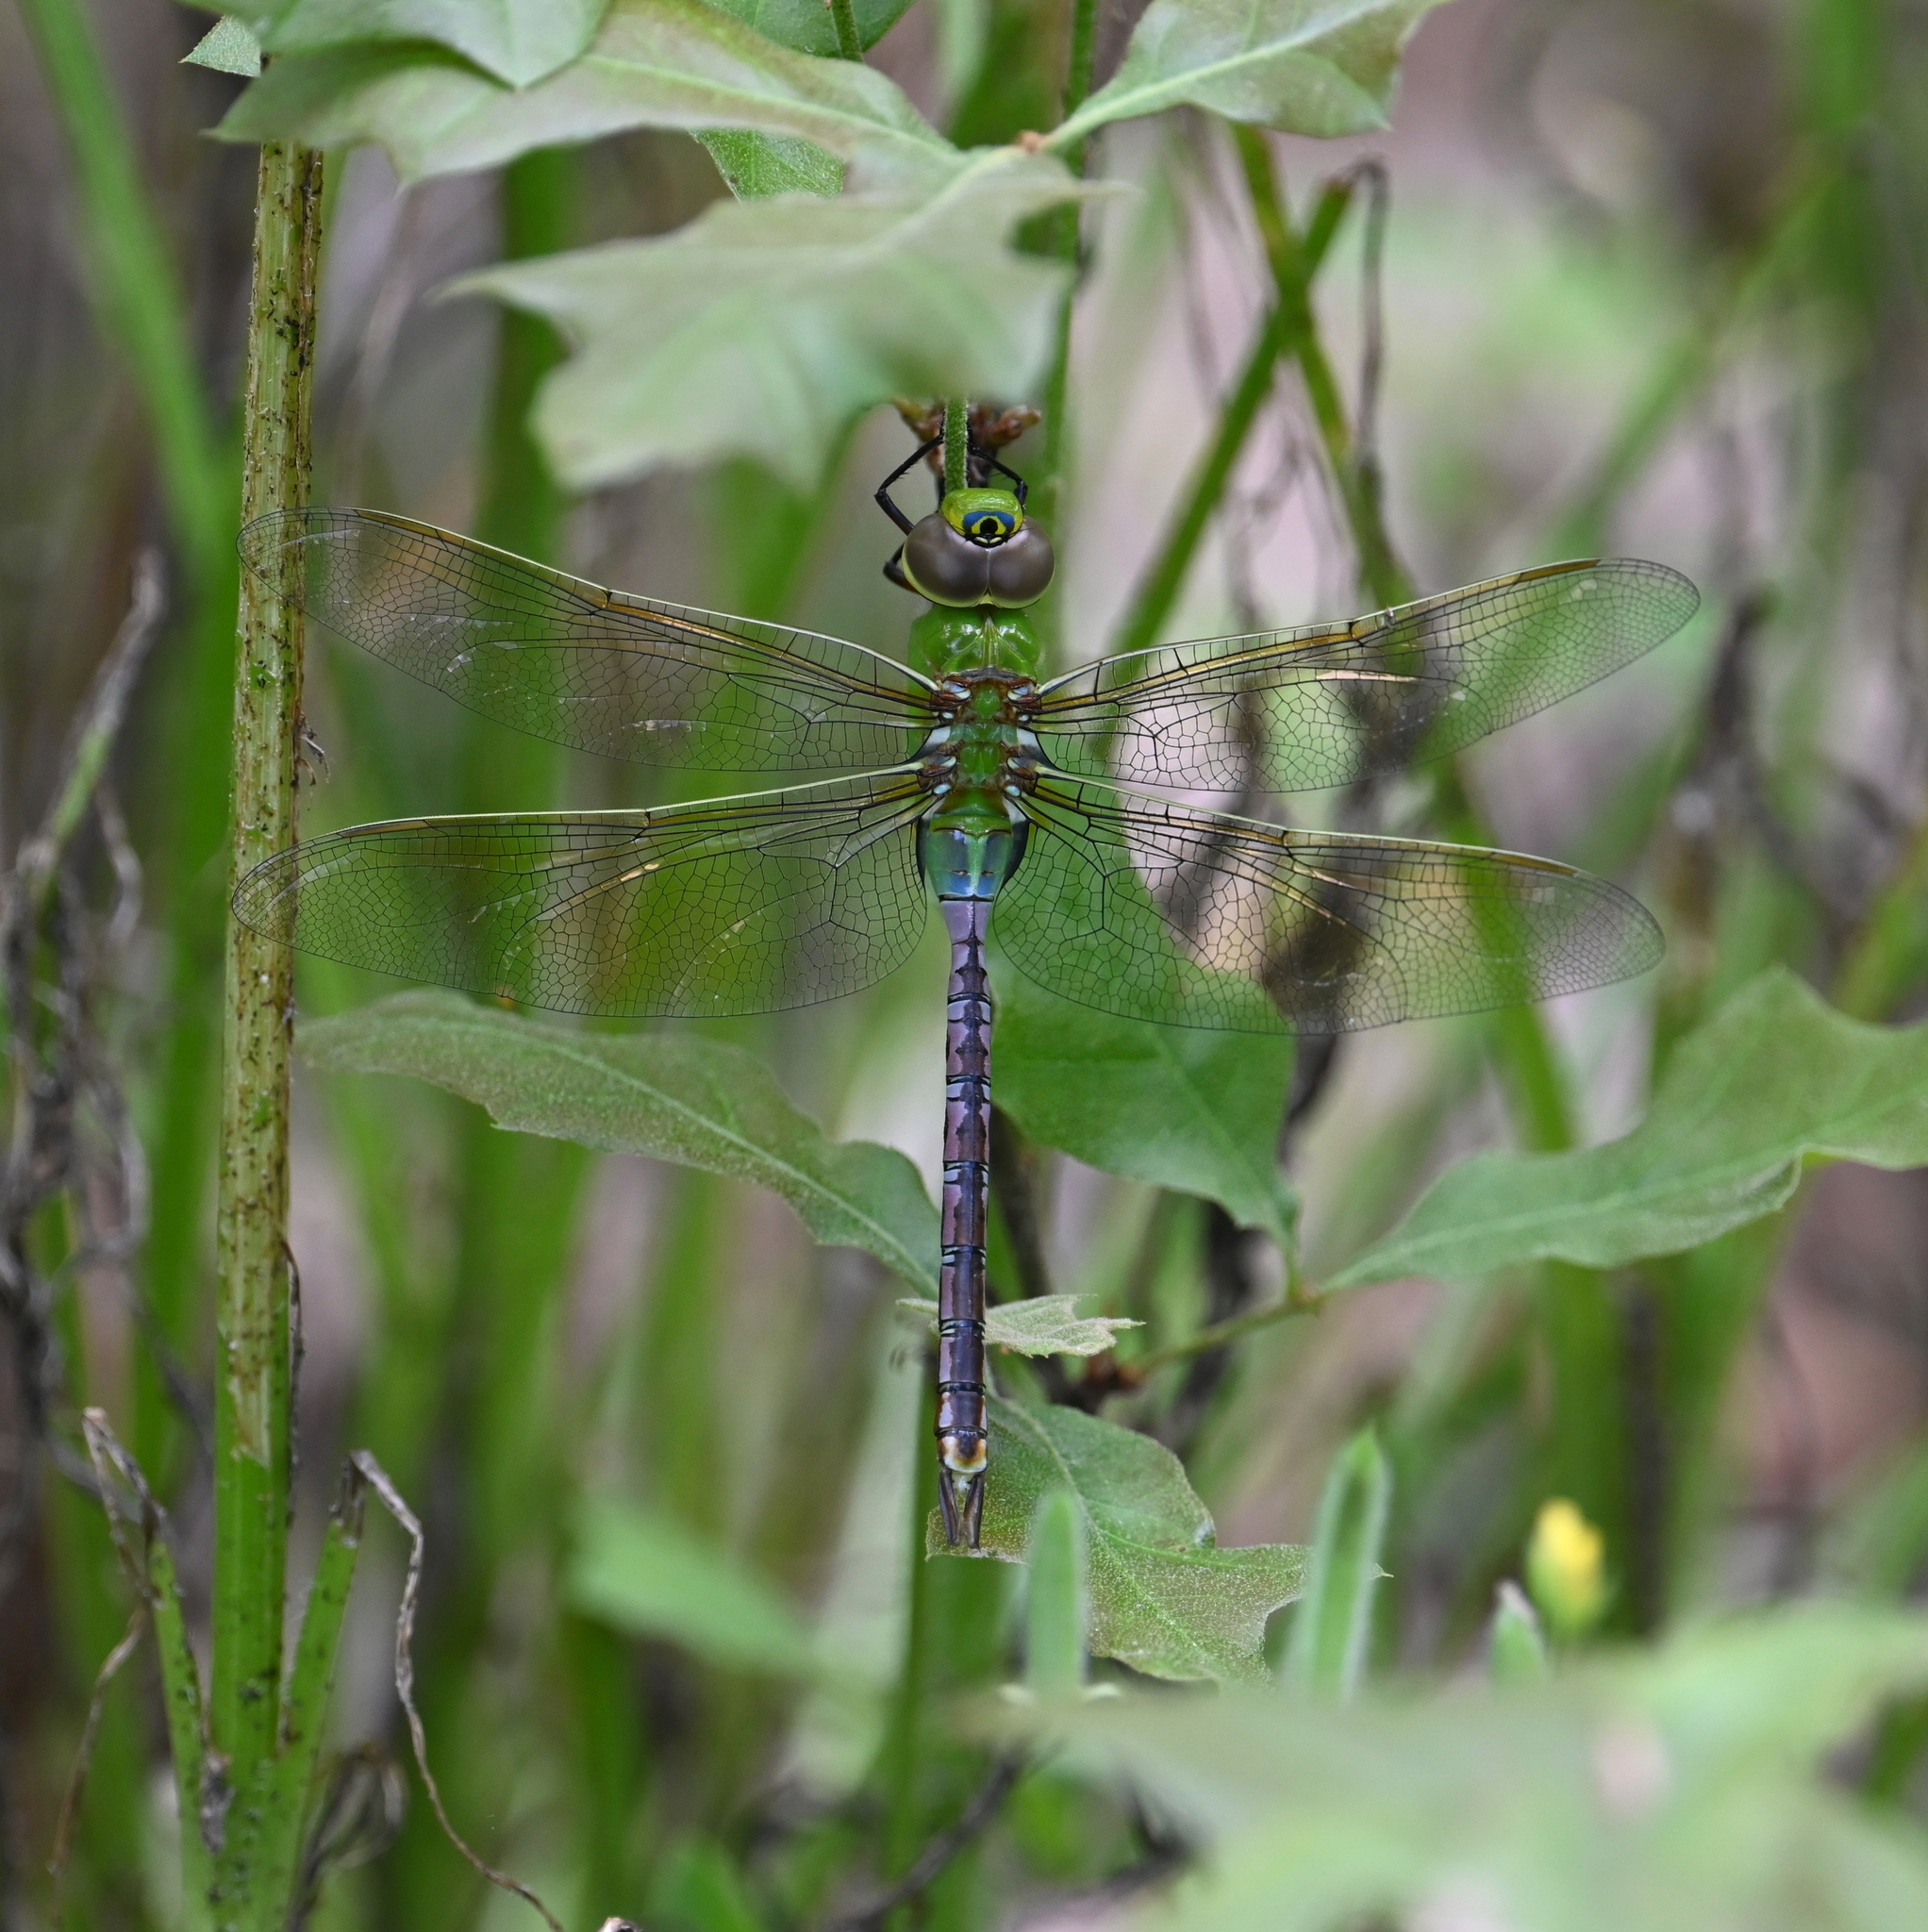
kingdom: Animalia
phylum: Arthropoda
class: Insecta
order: Odonata
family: Aeshnidae
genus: Anax
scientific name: Anax junius
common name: Common green darner
